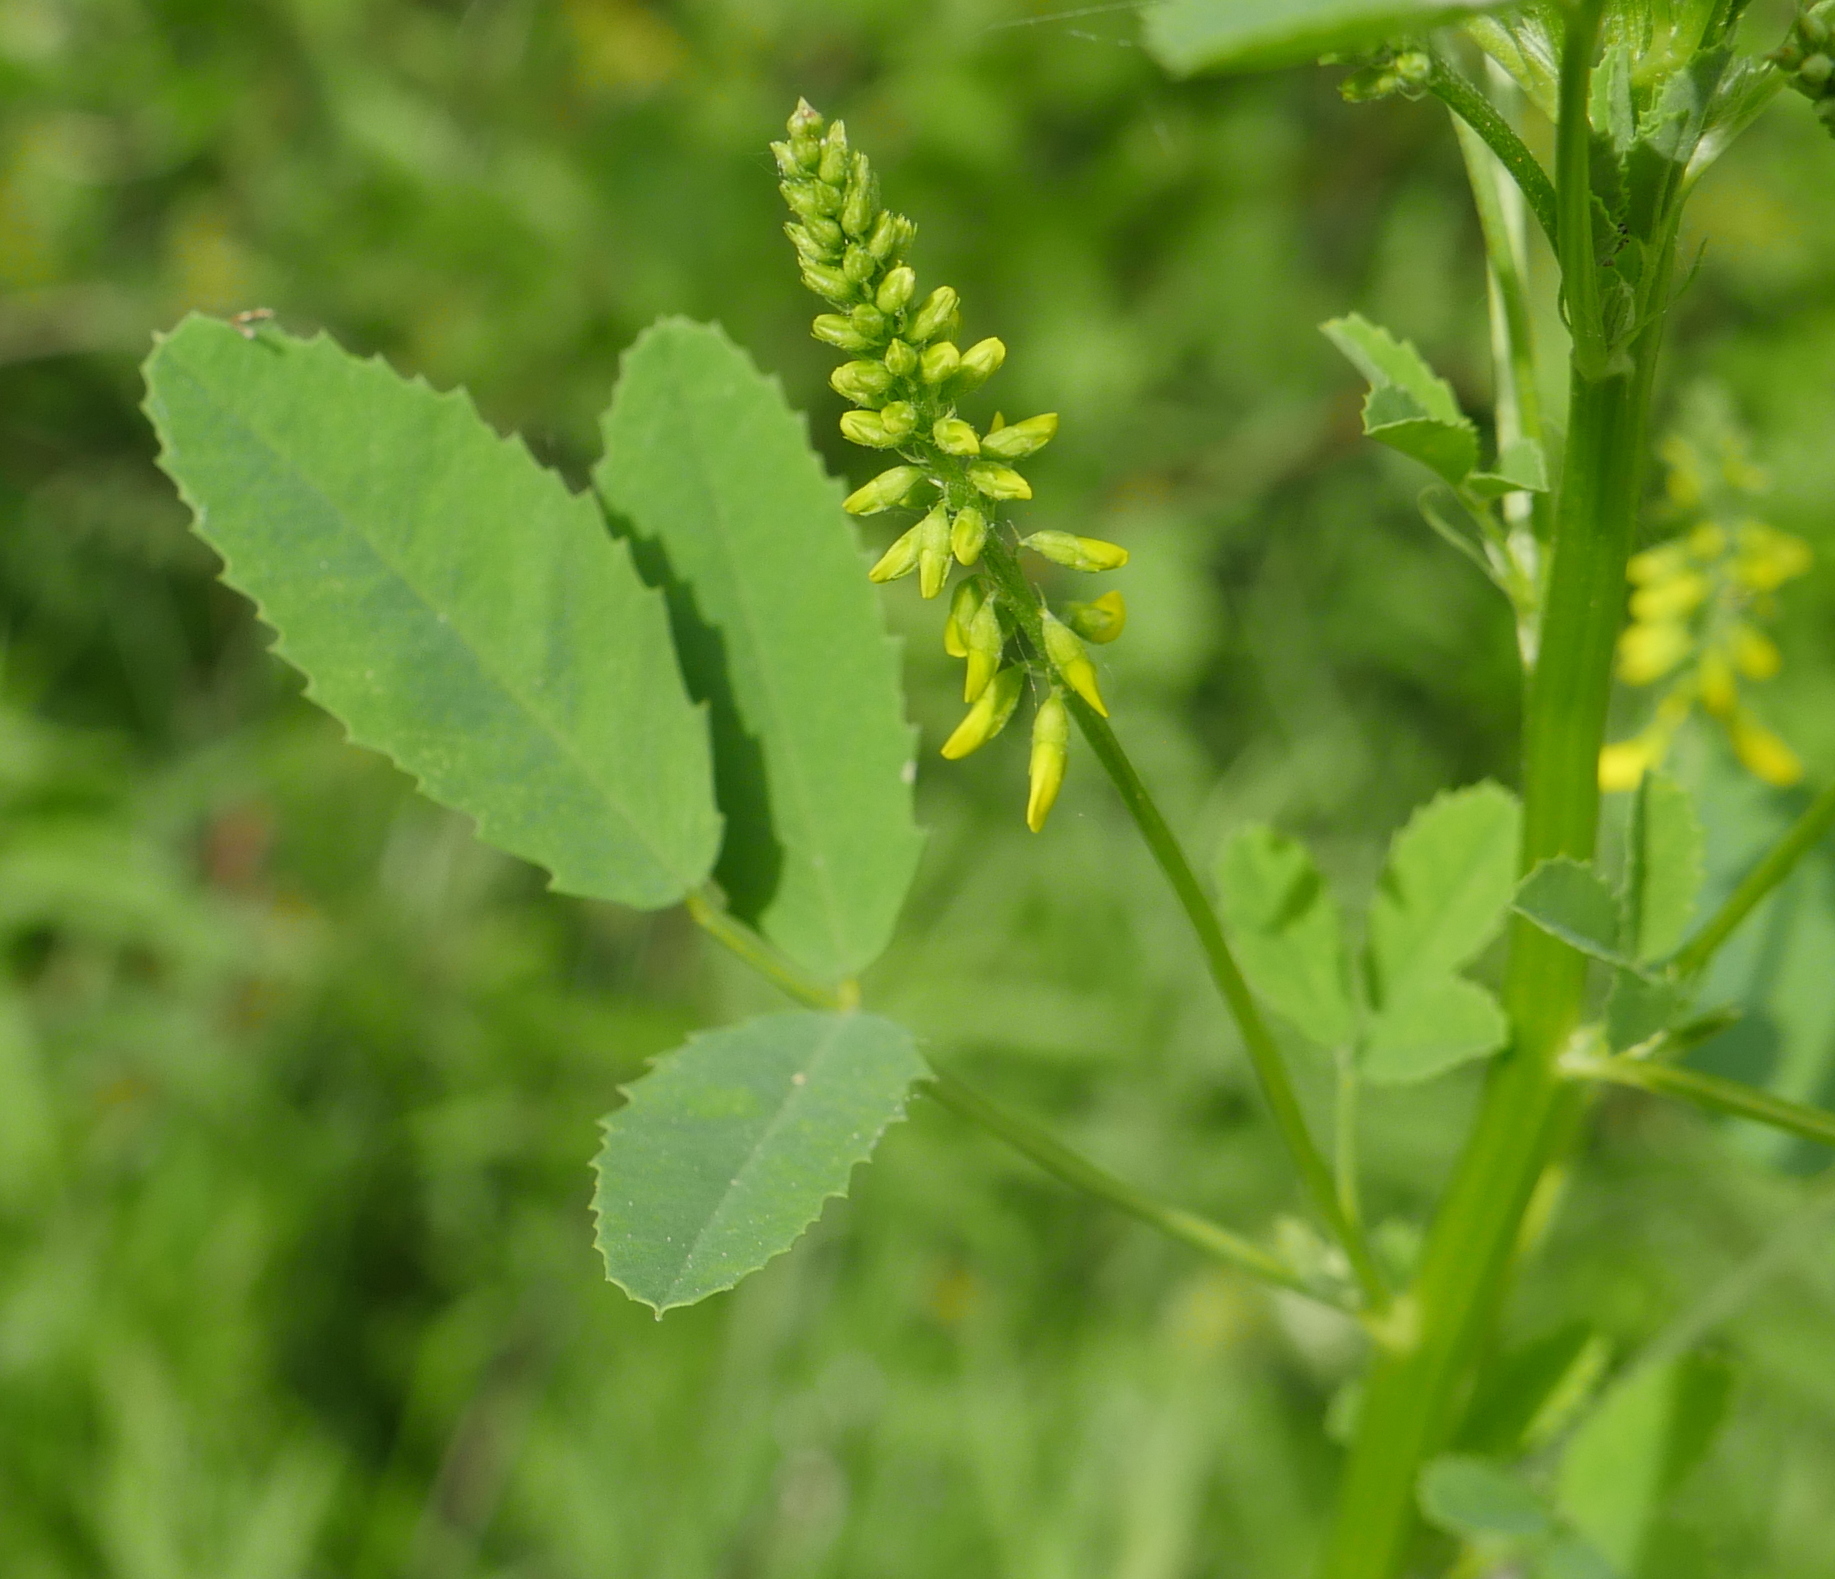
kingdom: Plantae
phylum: Tracheophyta
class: Magnoliopsida
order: Fabales
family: Fabaceae
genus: Melilotus
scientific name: Melilotus officinalis
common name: Sweetclover
